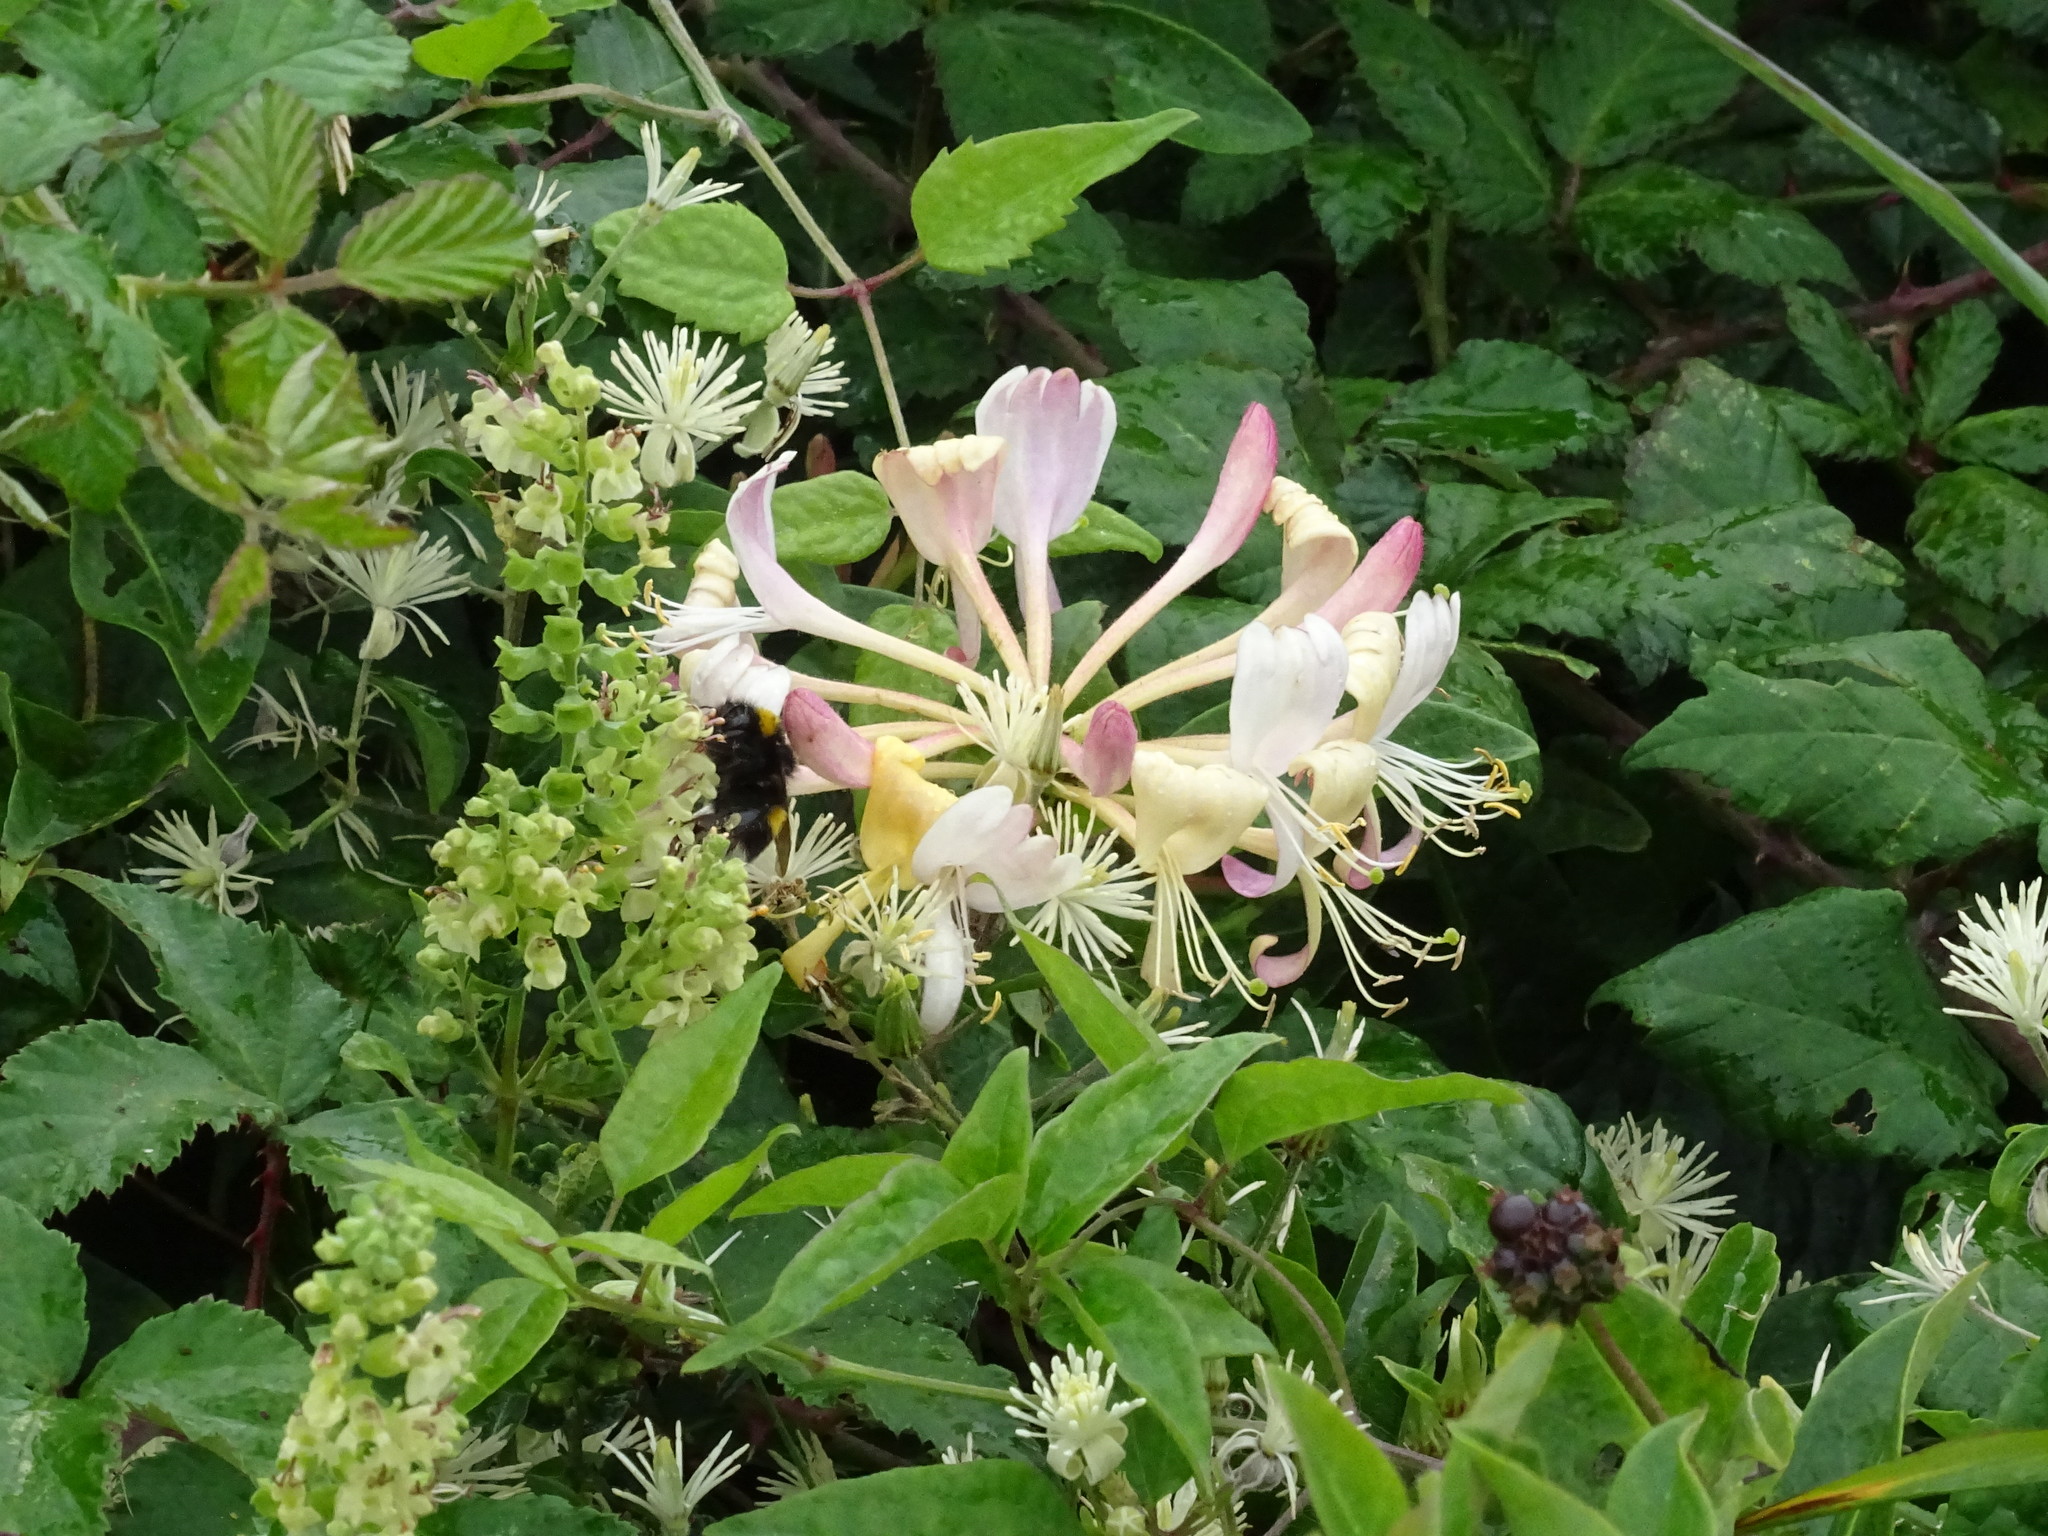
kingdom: Plantae
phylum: Tracheophyta
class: Magnoliopsida
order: Dipsacales
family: Caprifoliaceae
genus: Lonicera
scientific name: Lonicera periclymenum
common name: European honeysuckle
